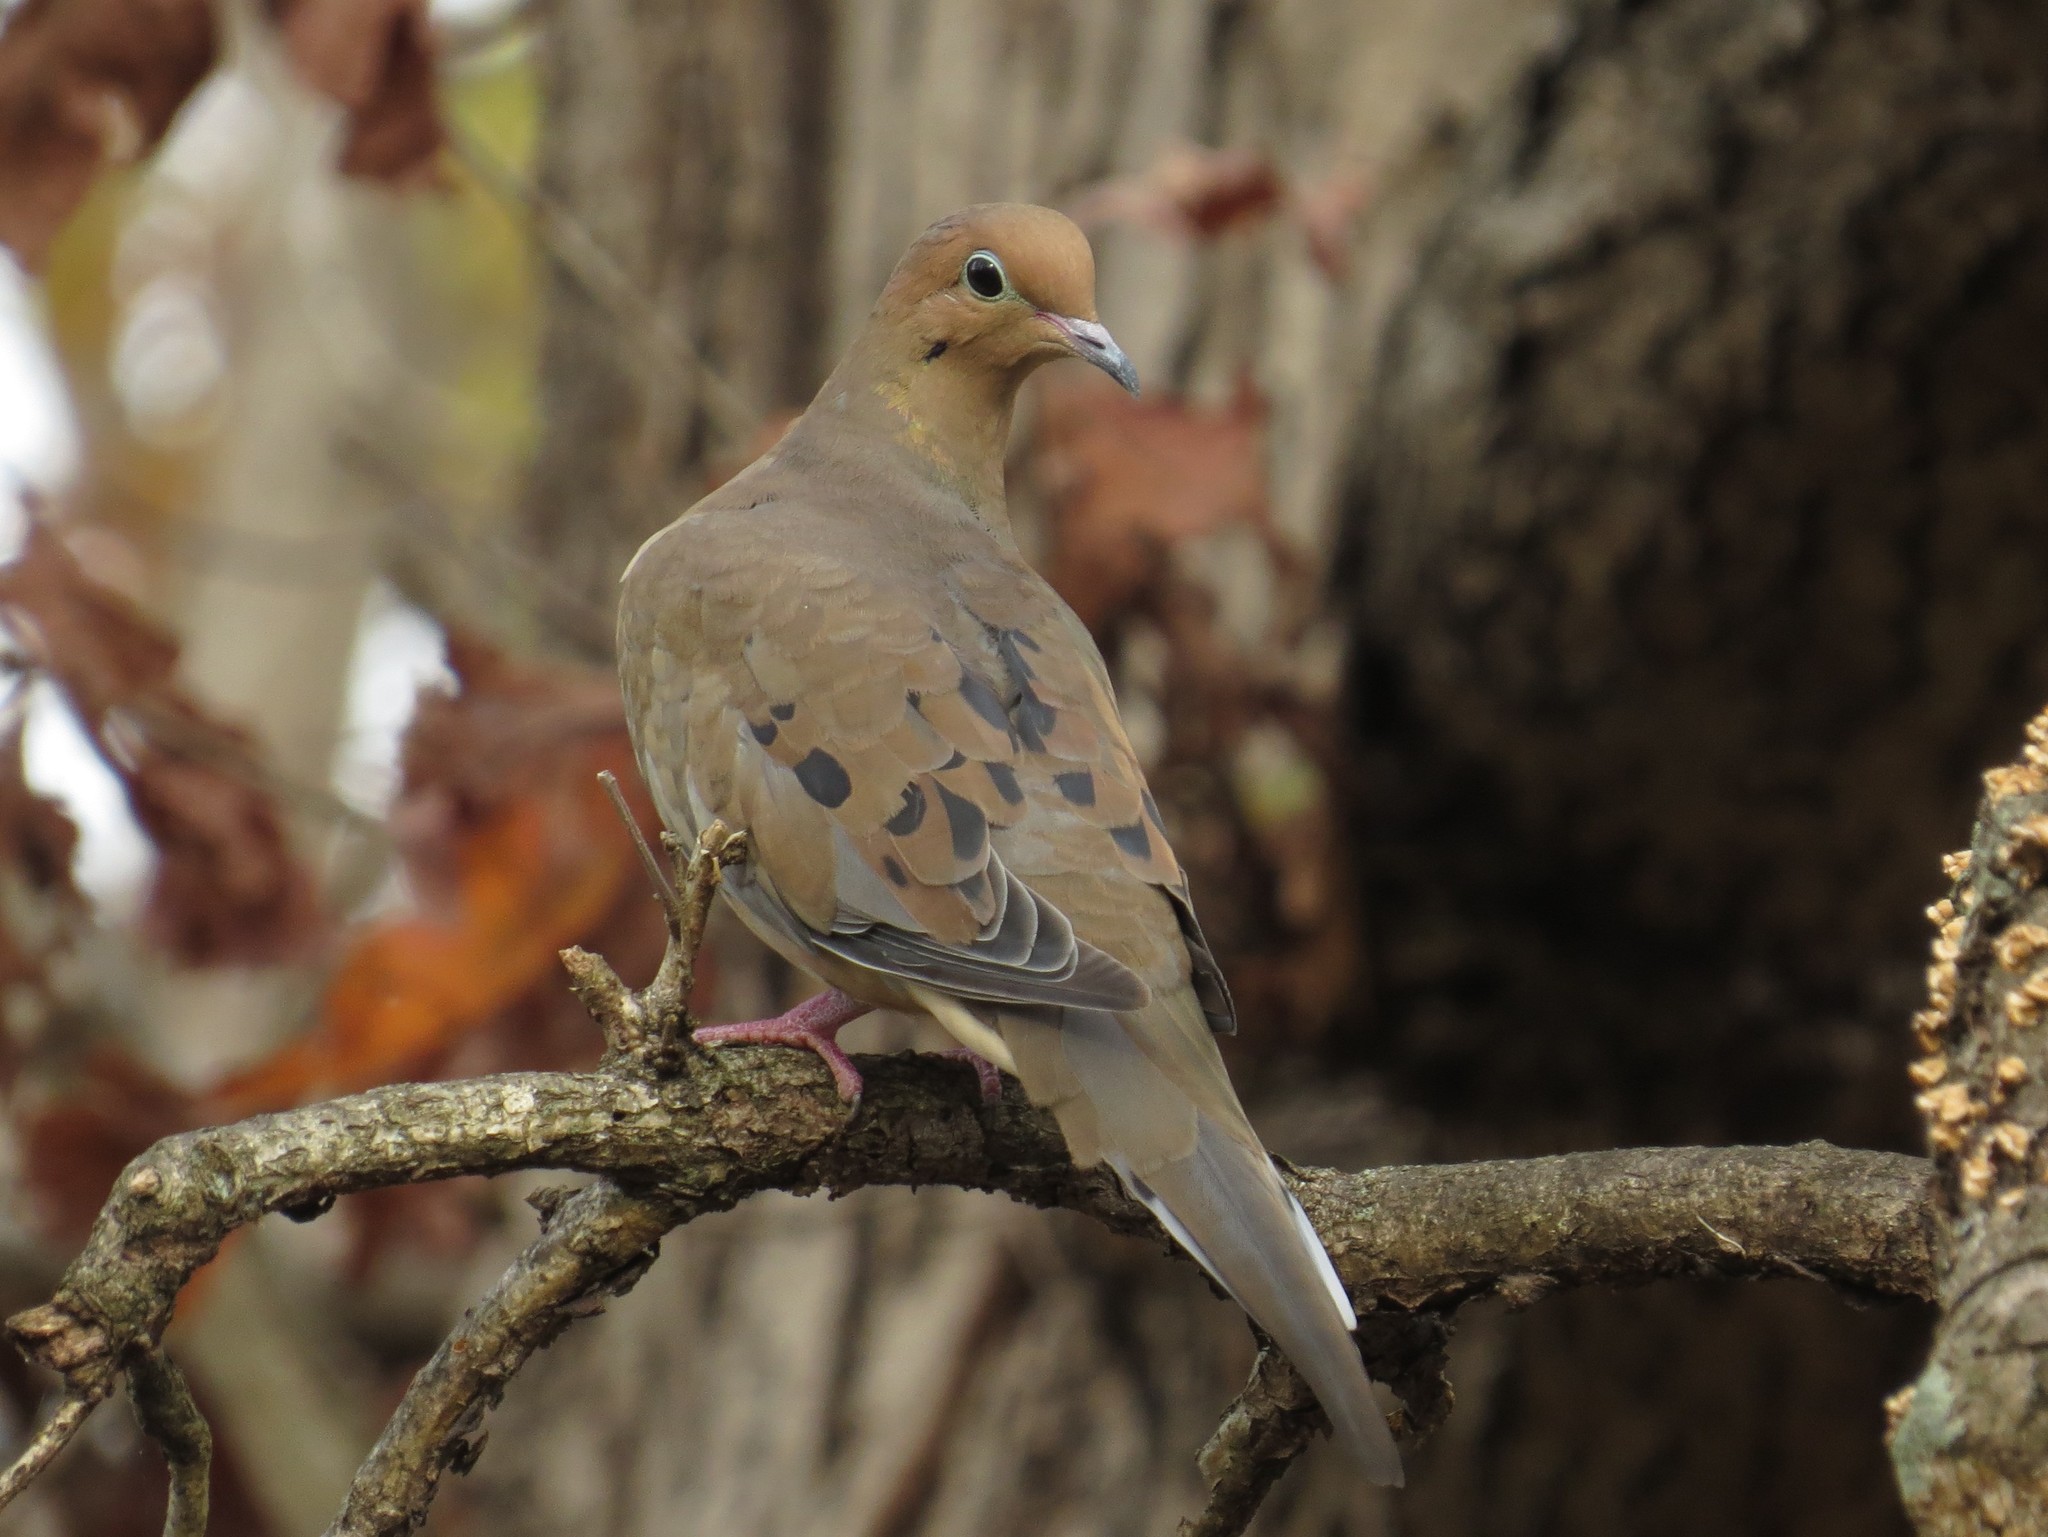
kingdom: Animalia
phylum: Chordata
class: Aves
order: Columbiformes
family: Columbidae
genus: Zenaida
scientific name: Zenaida macroura
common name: Mourning dove
